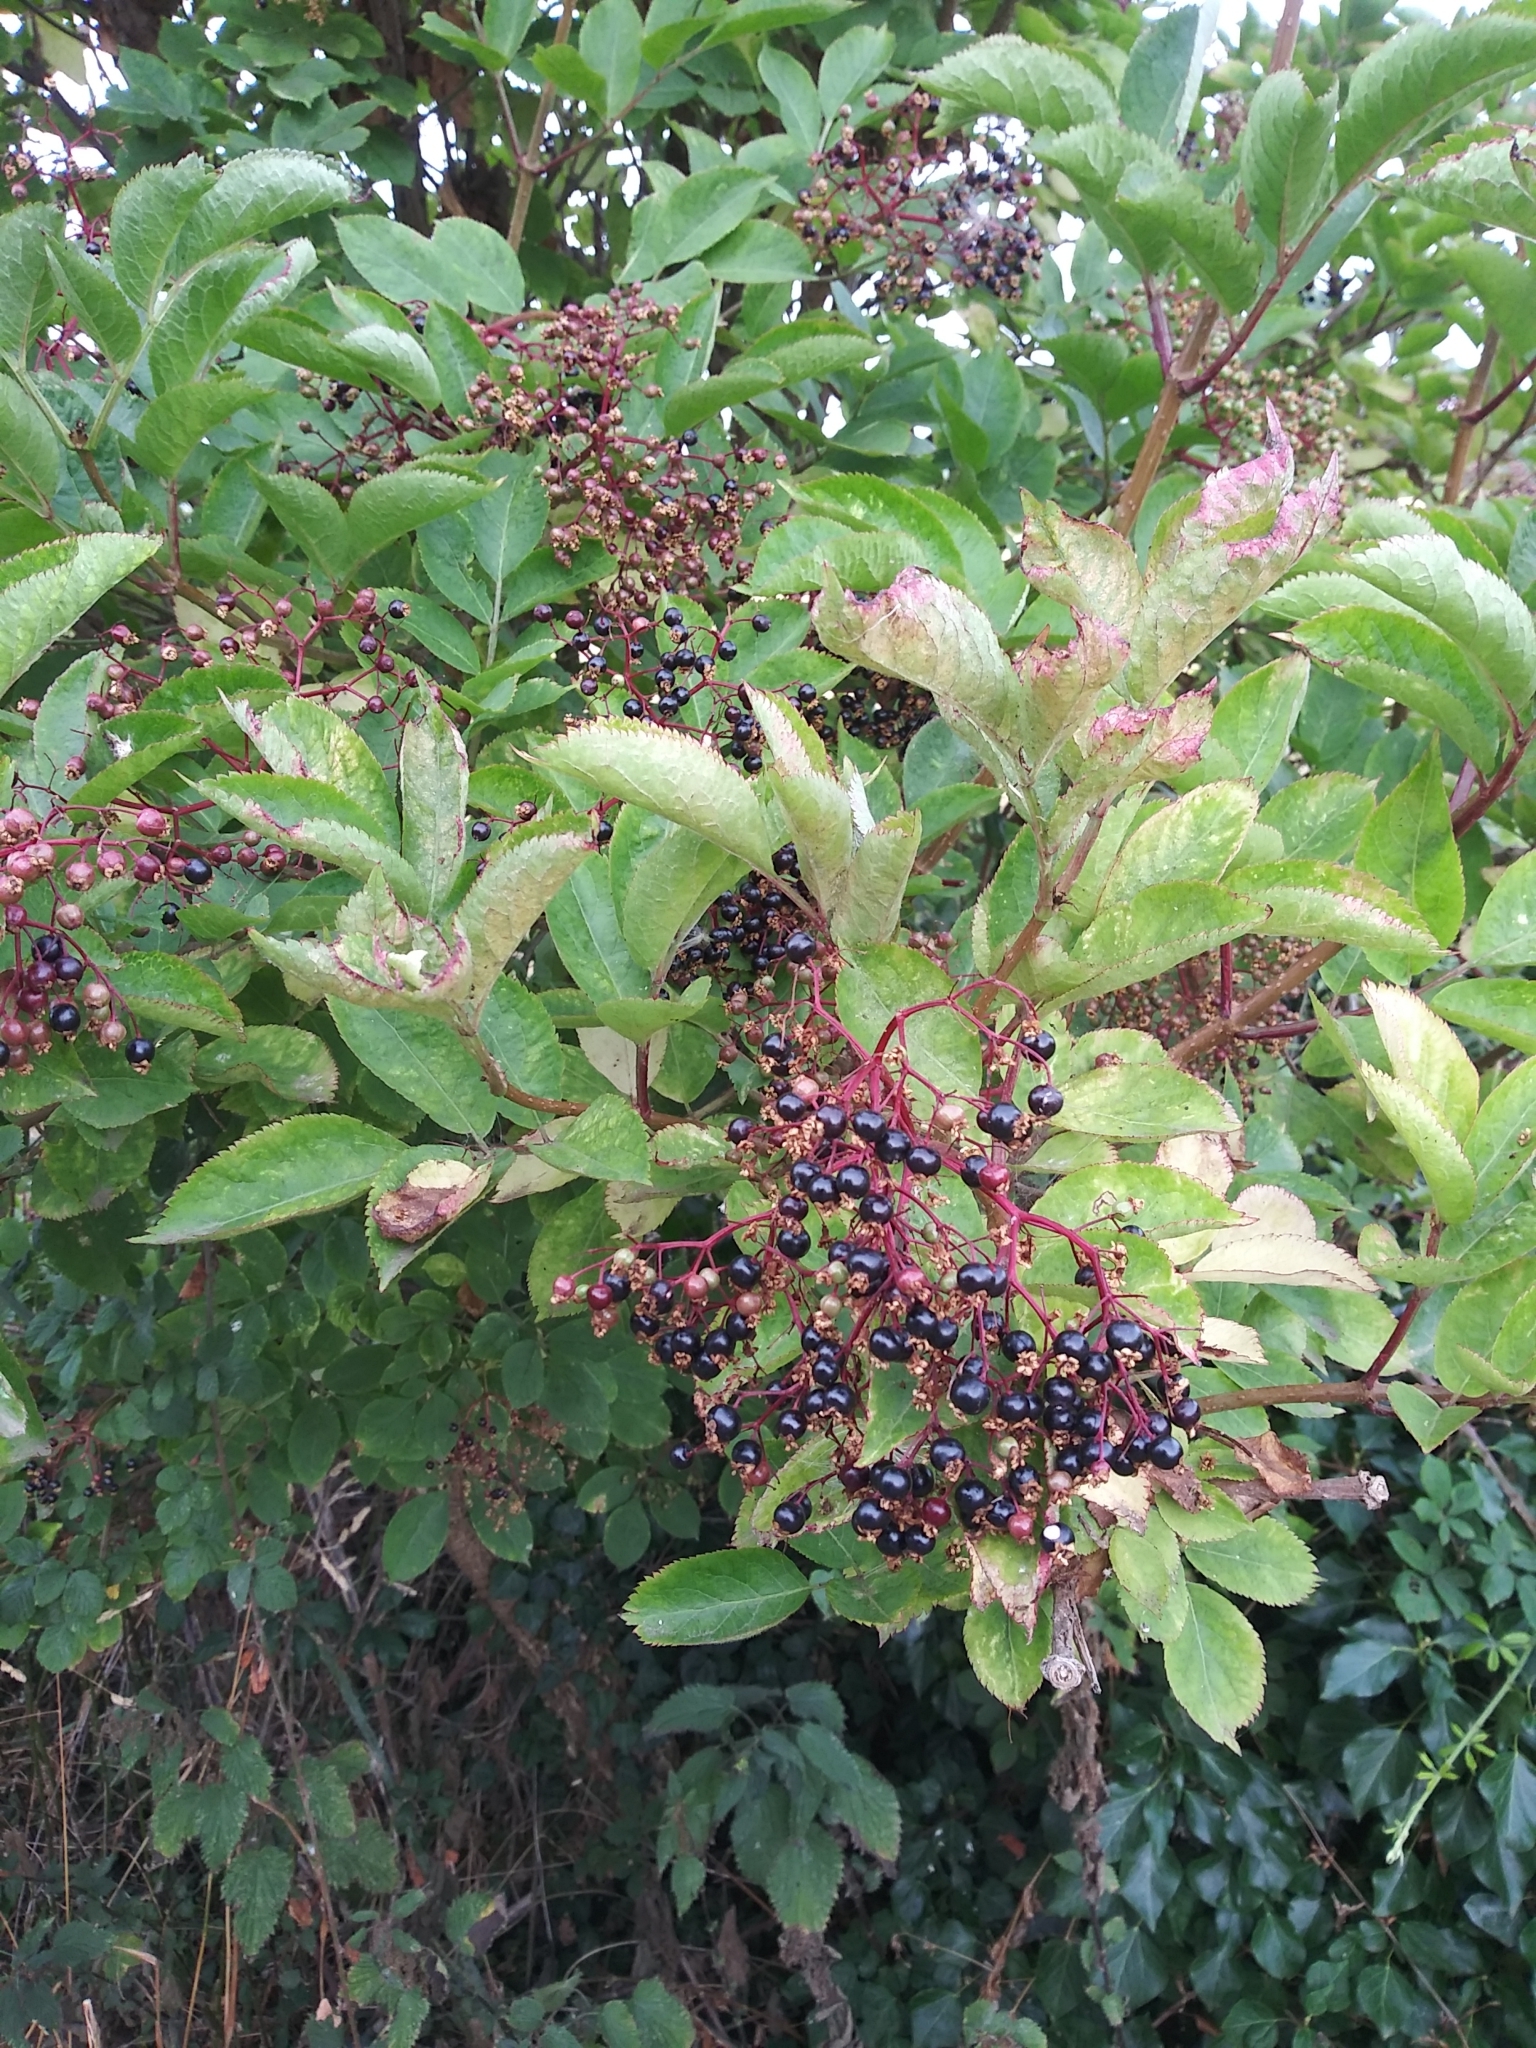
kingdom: Plantae
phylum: Tracheophyta
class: Magnoliopsida
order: Dipsacales
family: Viburnaceae
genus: Sambucus
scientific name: Sambucus nigra
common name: Elder
